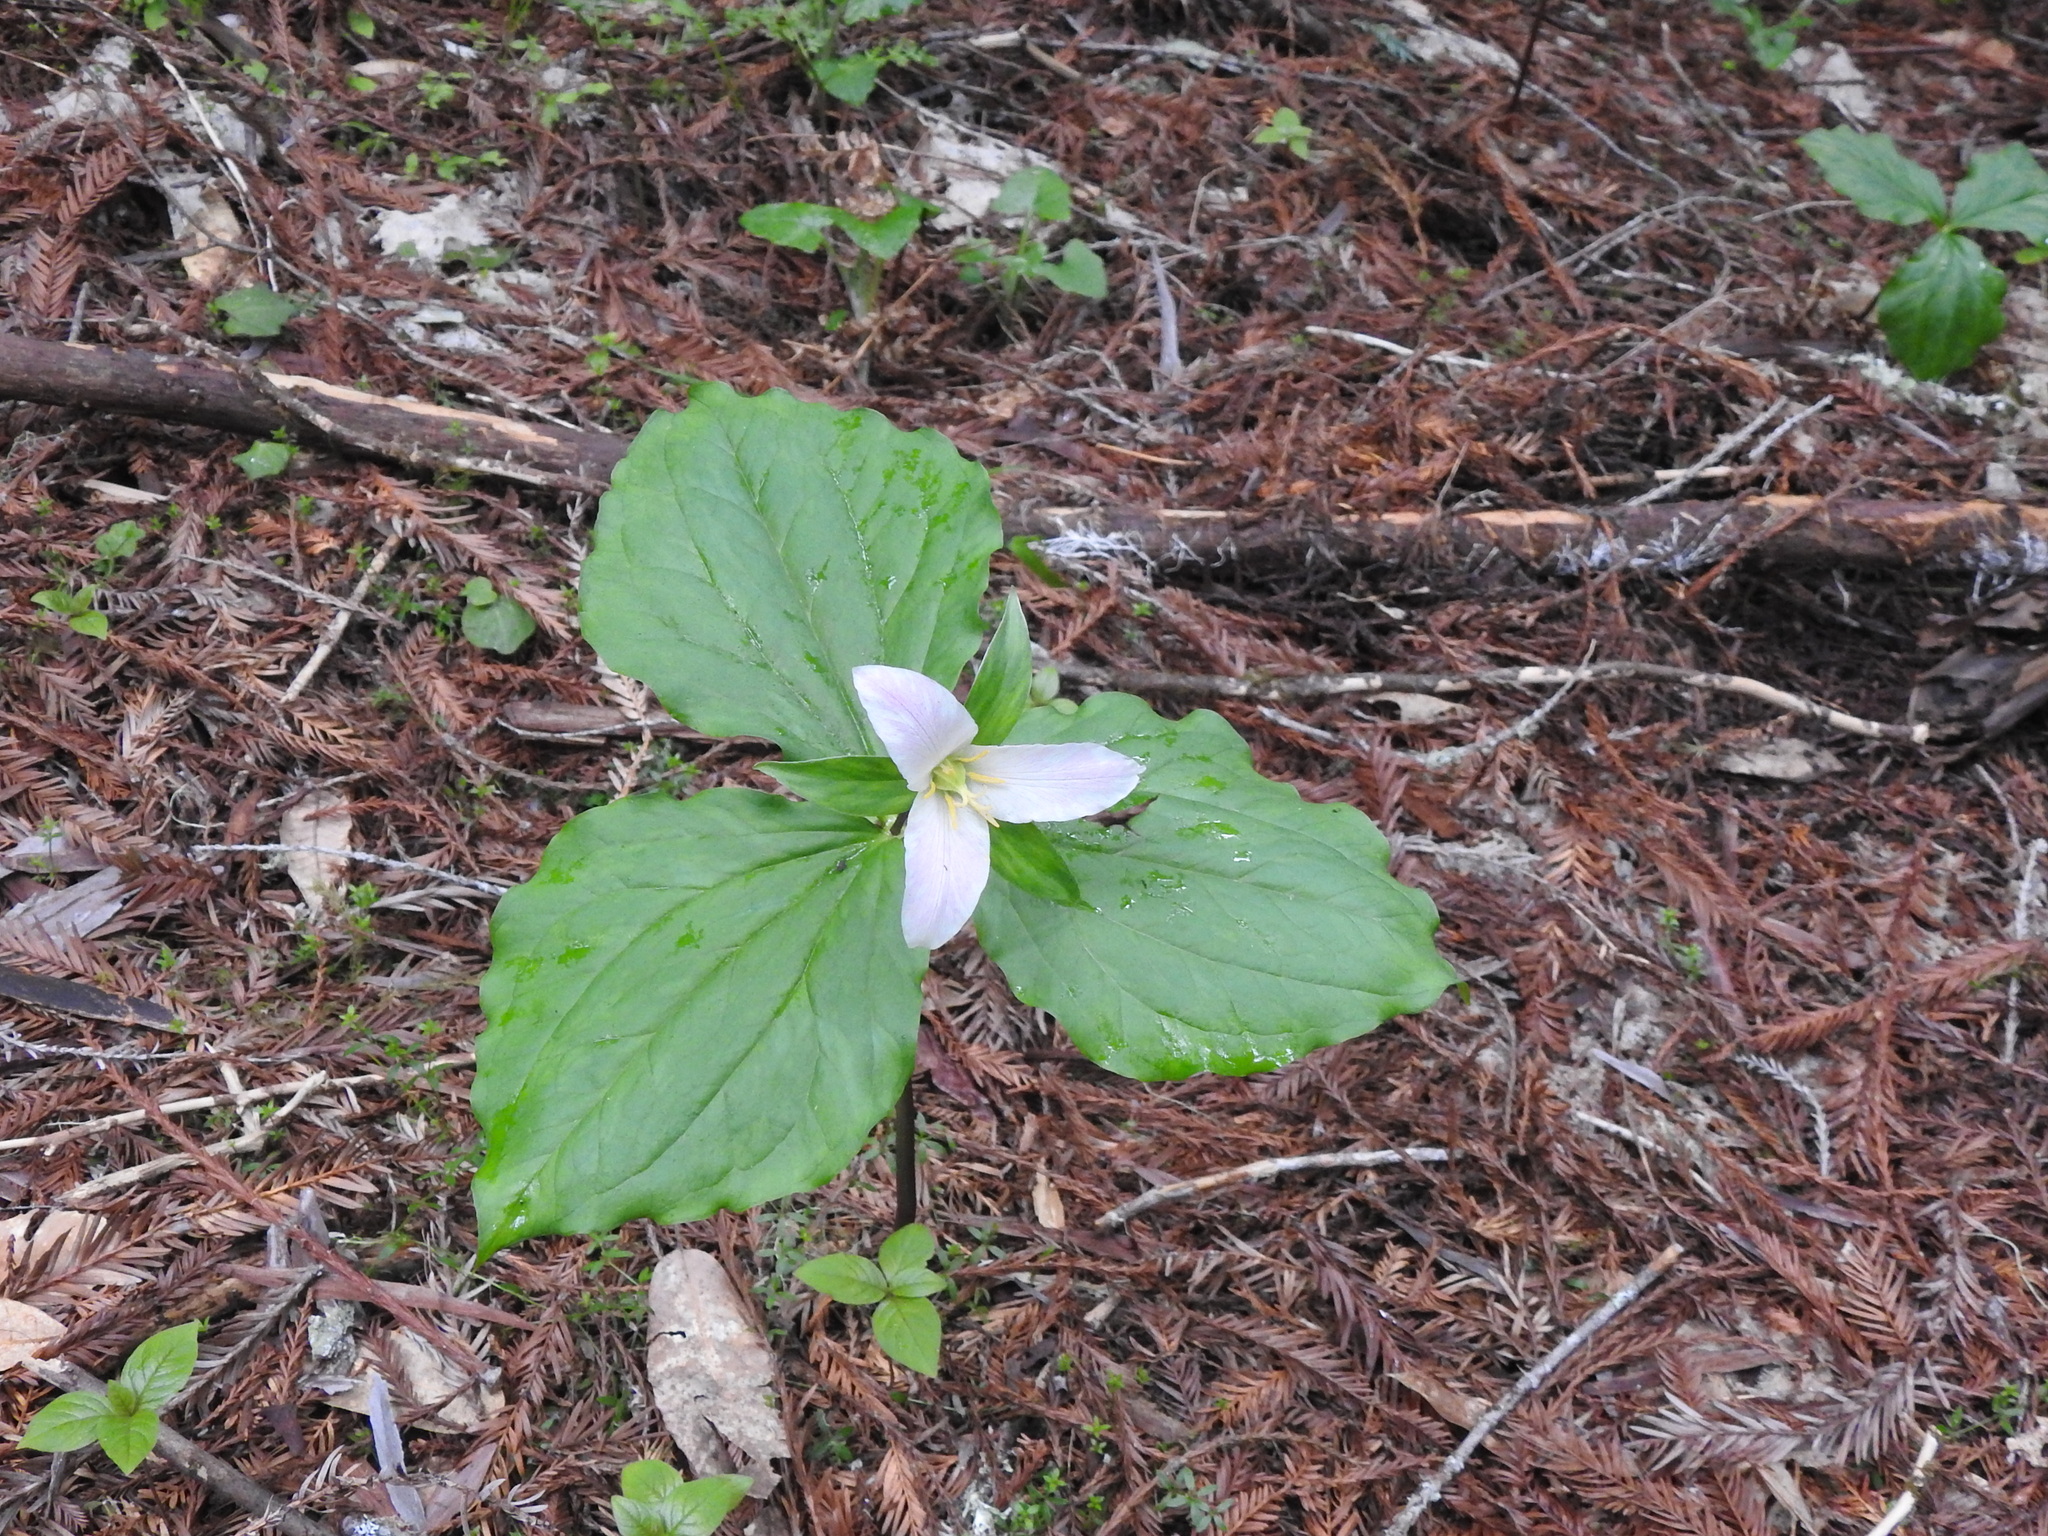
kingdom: Plantae
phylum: Tracheophyta
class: Liliopsida
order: Liliales
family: Melanthiaceae
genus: Trillium
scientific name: Trillium ovatum
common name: Pacific trillium
